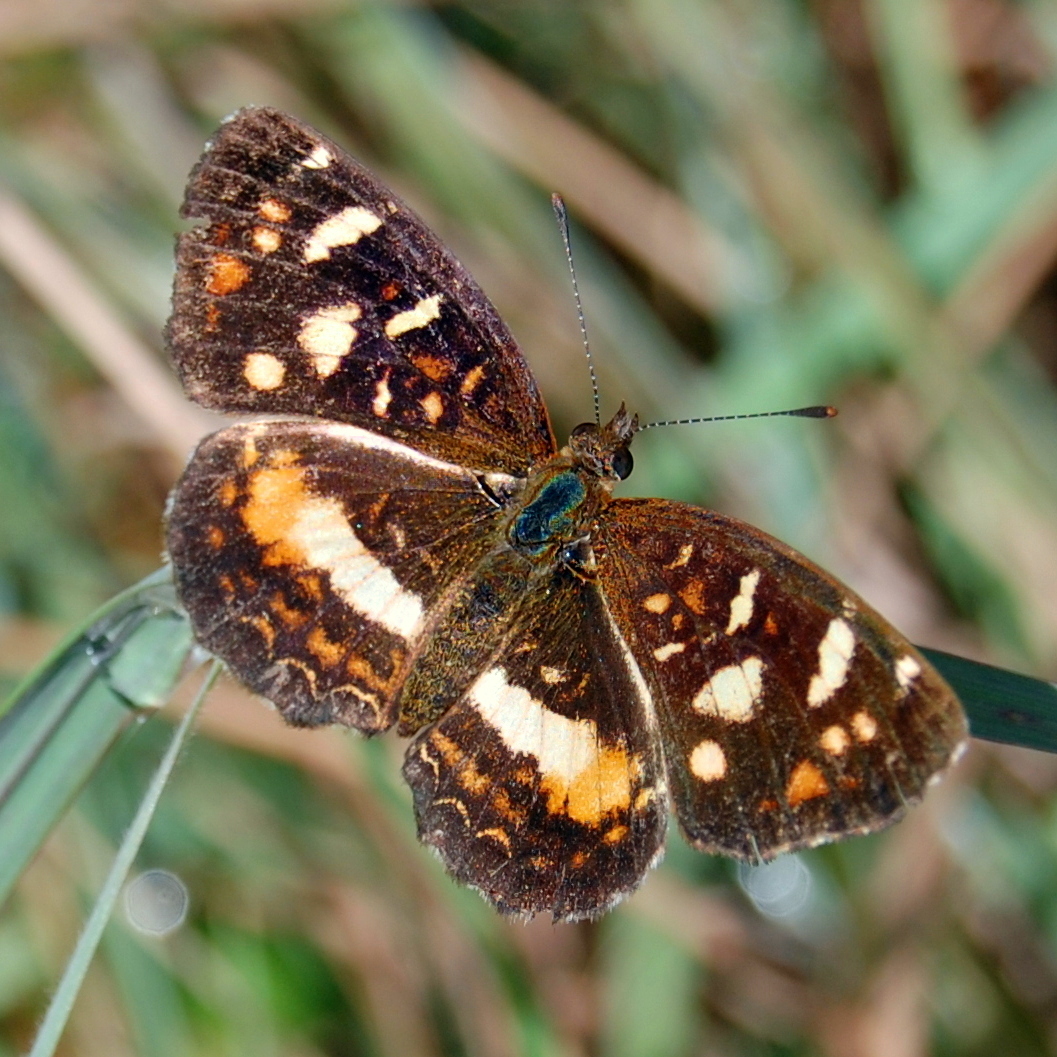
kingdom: Animalia
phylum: Arthropoda
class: Insecta
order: Lepidoptera
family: Nymphalidae
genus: Ortilia
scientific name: Ortilia orthia
